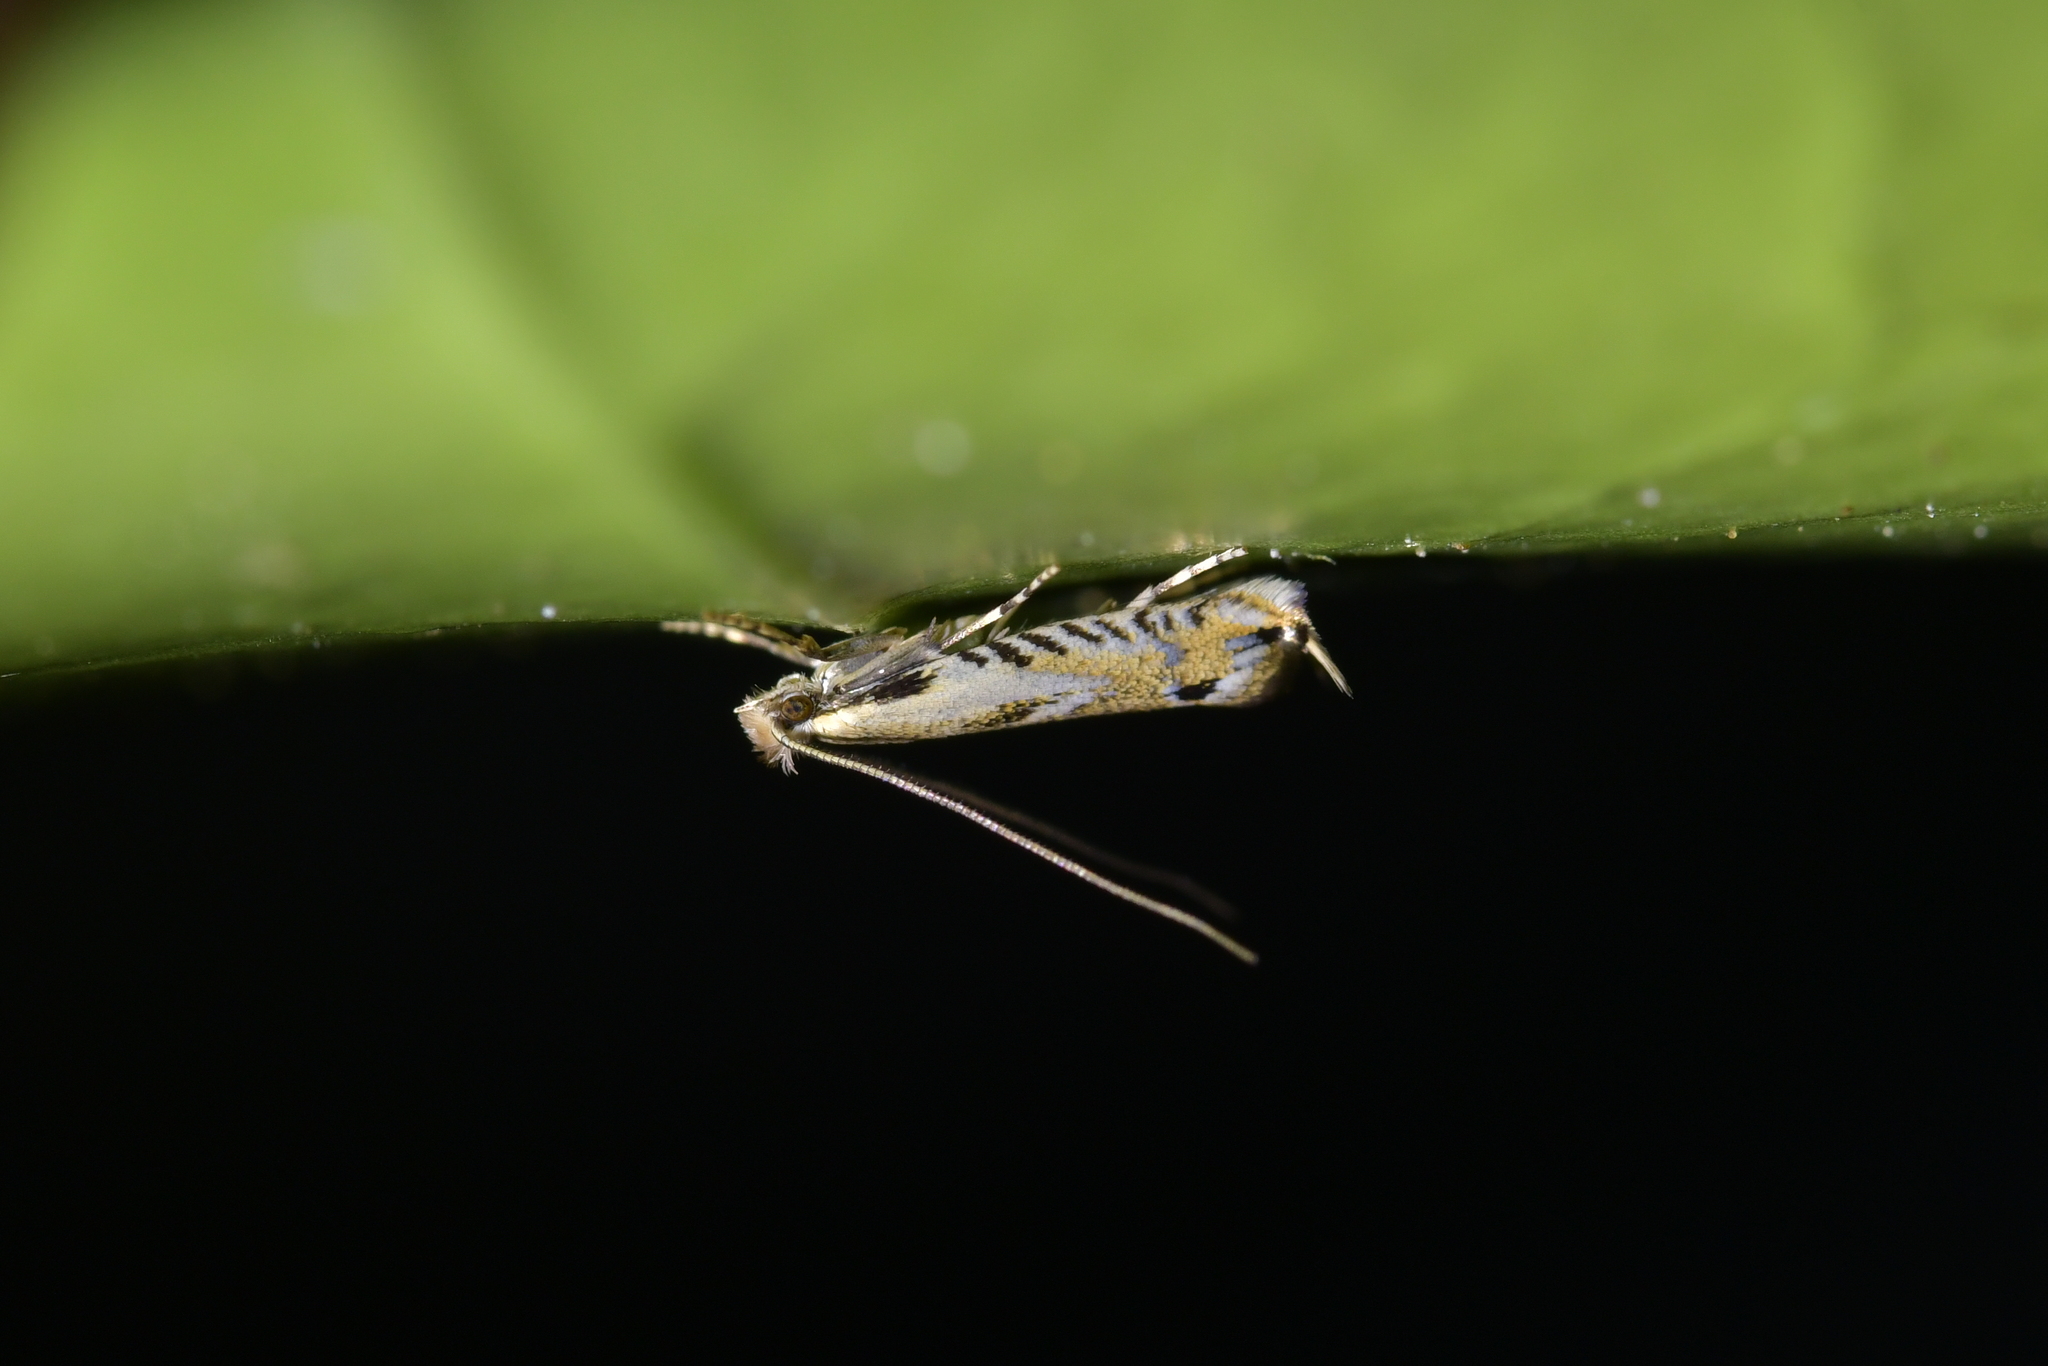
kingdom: Animalia
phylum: Arthropoda
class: Insecta
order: Lepidoptera
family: Tineidae
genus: Erechthias
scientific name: Erechthias decoranda
